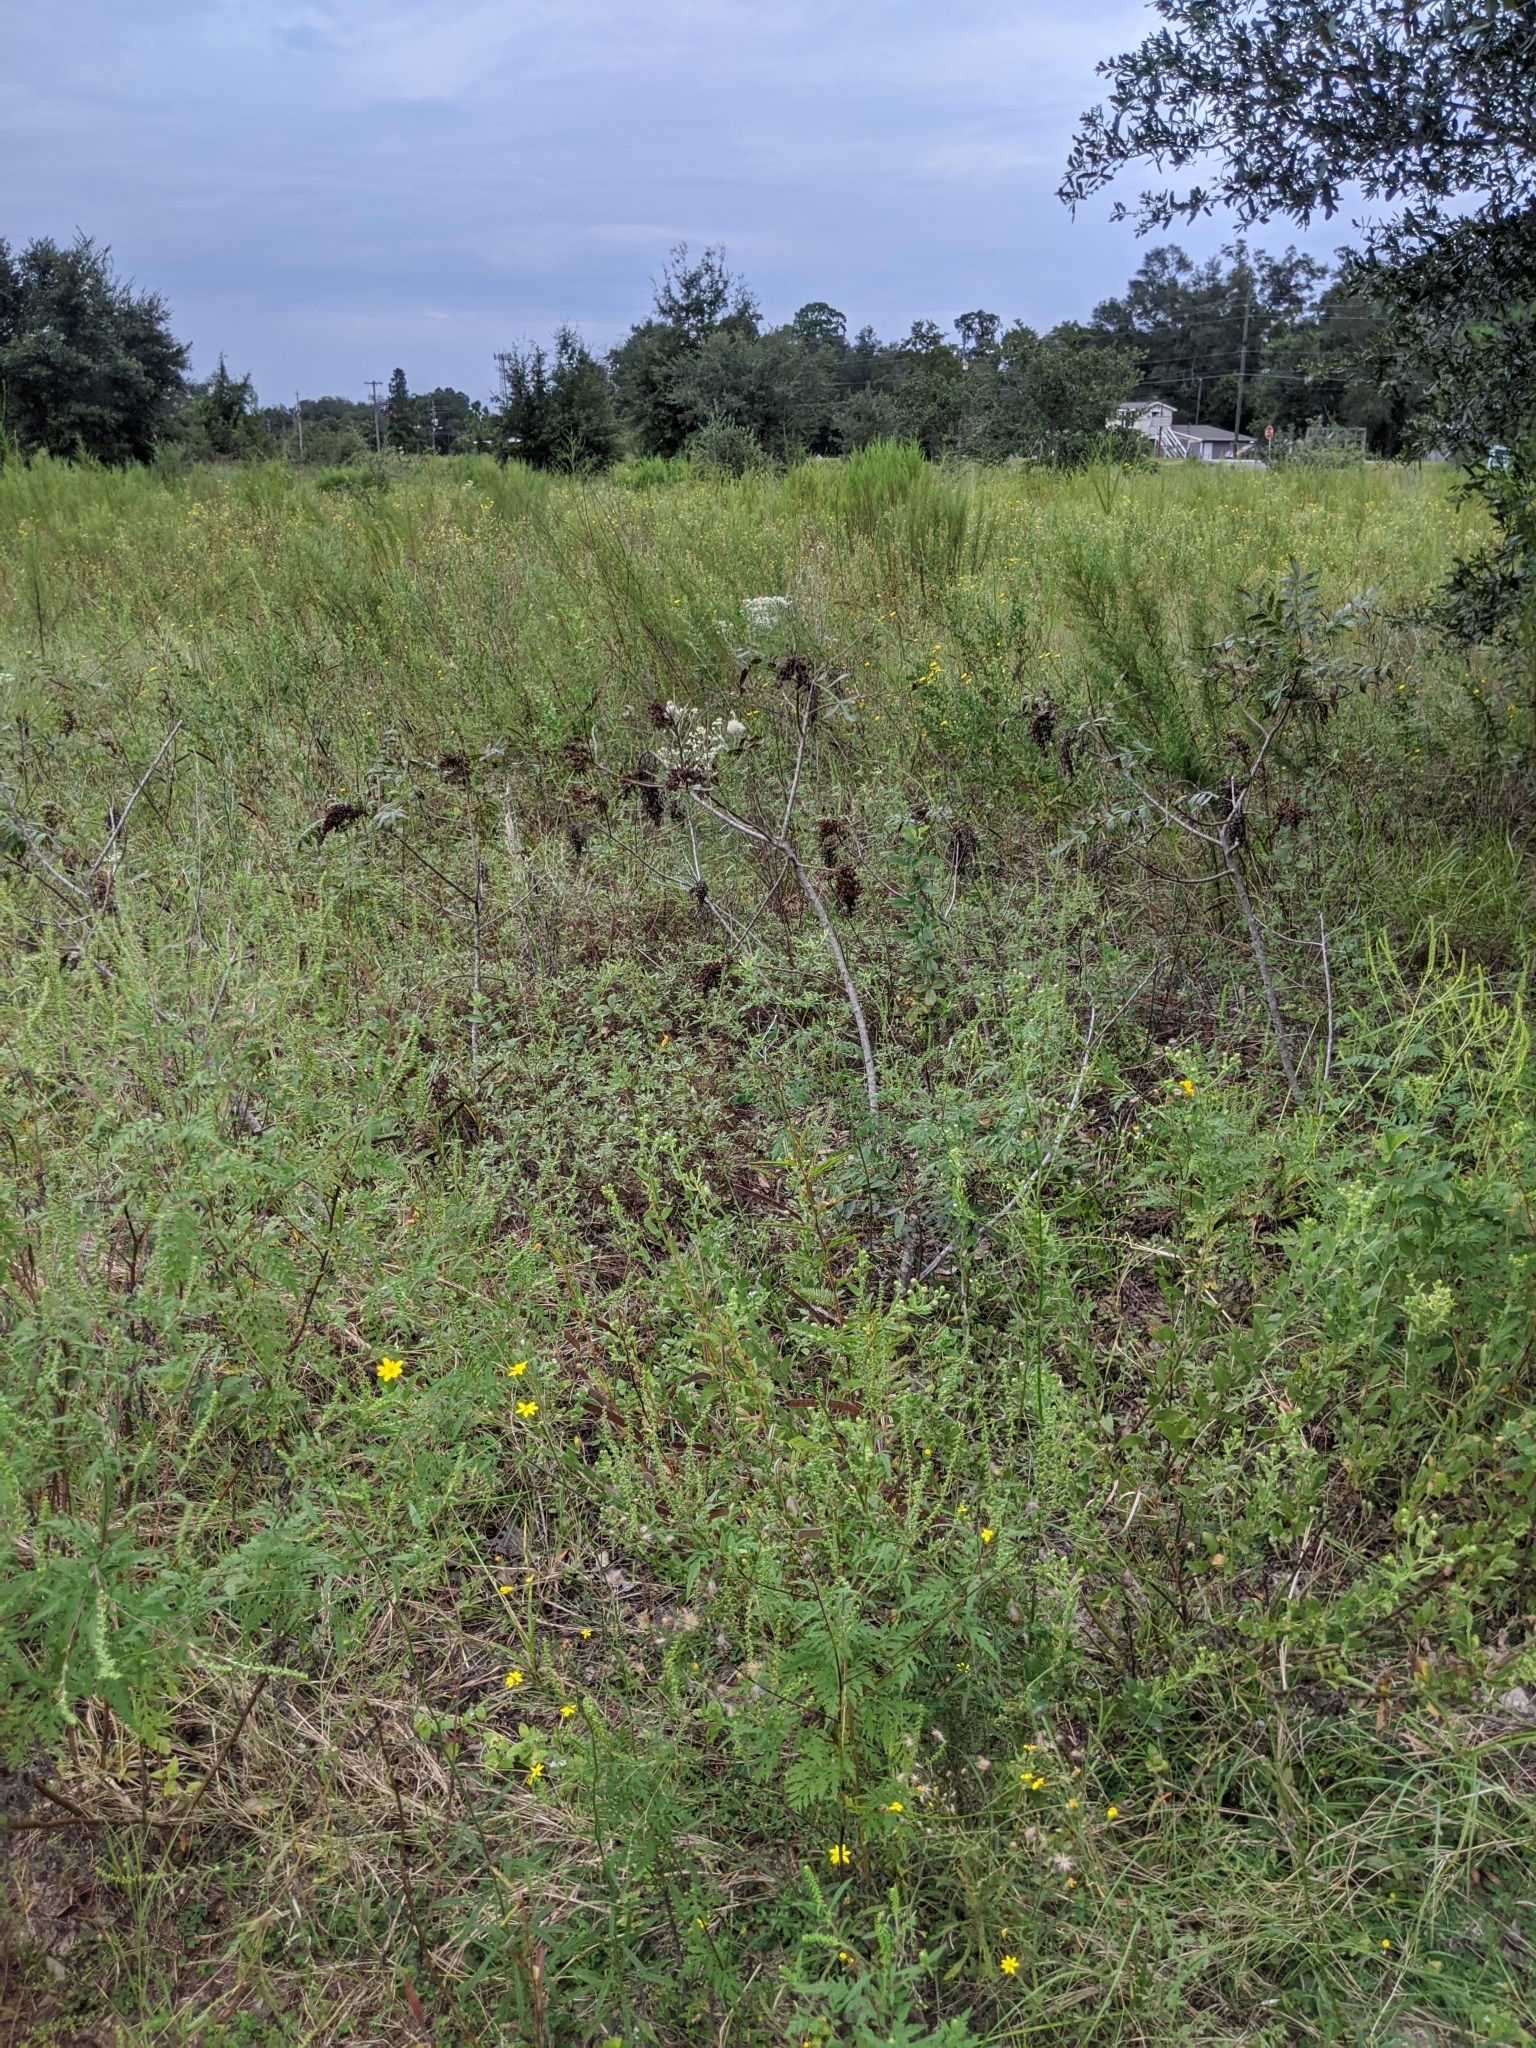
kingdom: Plantae
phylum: Tracheophyta
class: Magnoliopsida
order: Asterales
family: Asteraceae
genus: Croptilon
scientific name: Croptilon divaricatum
